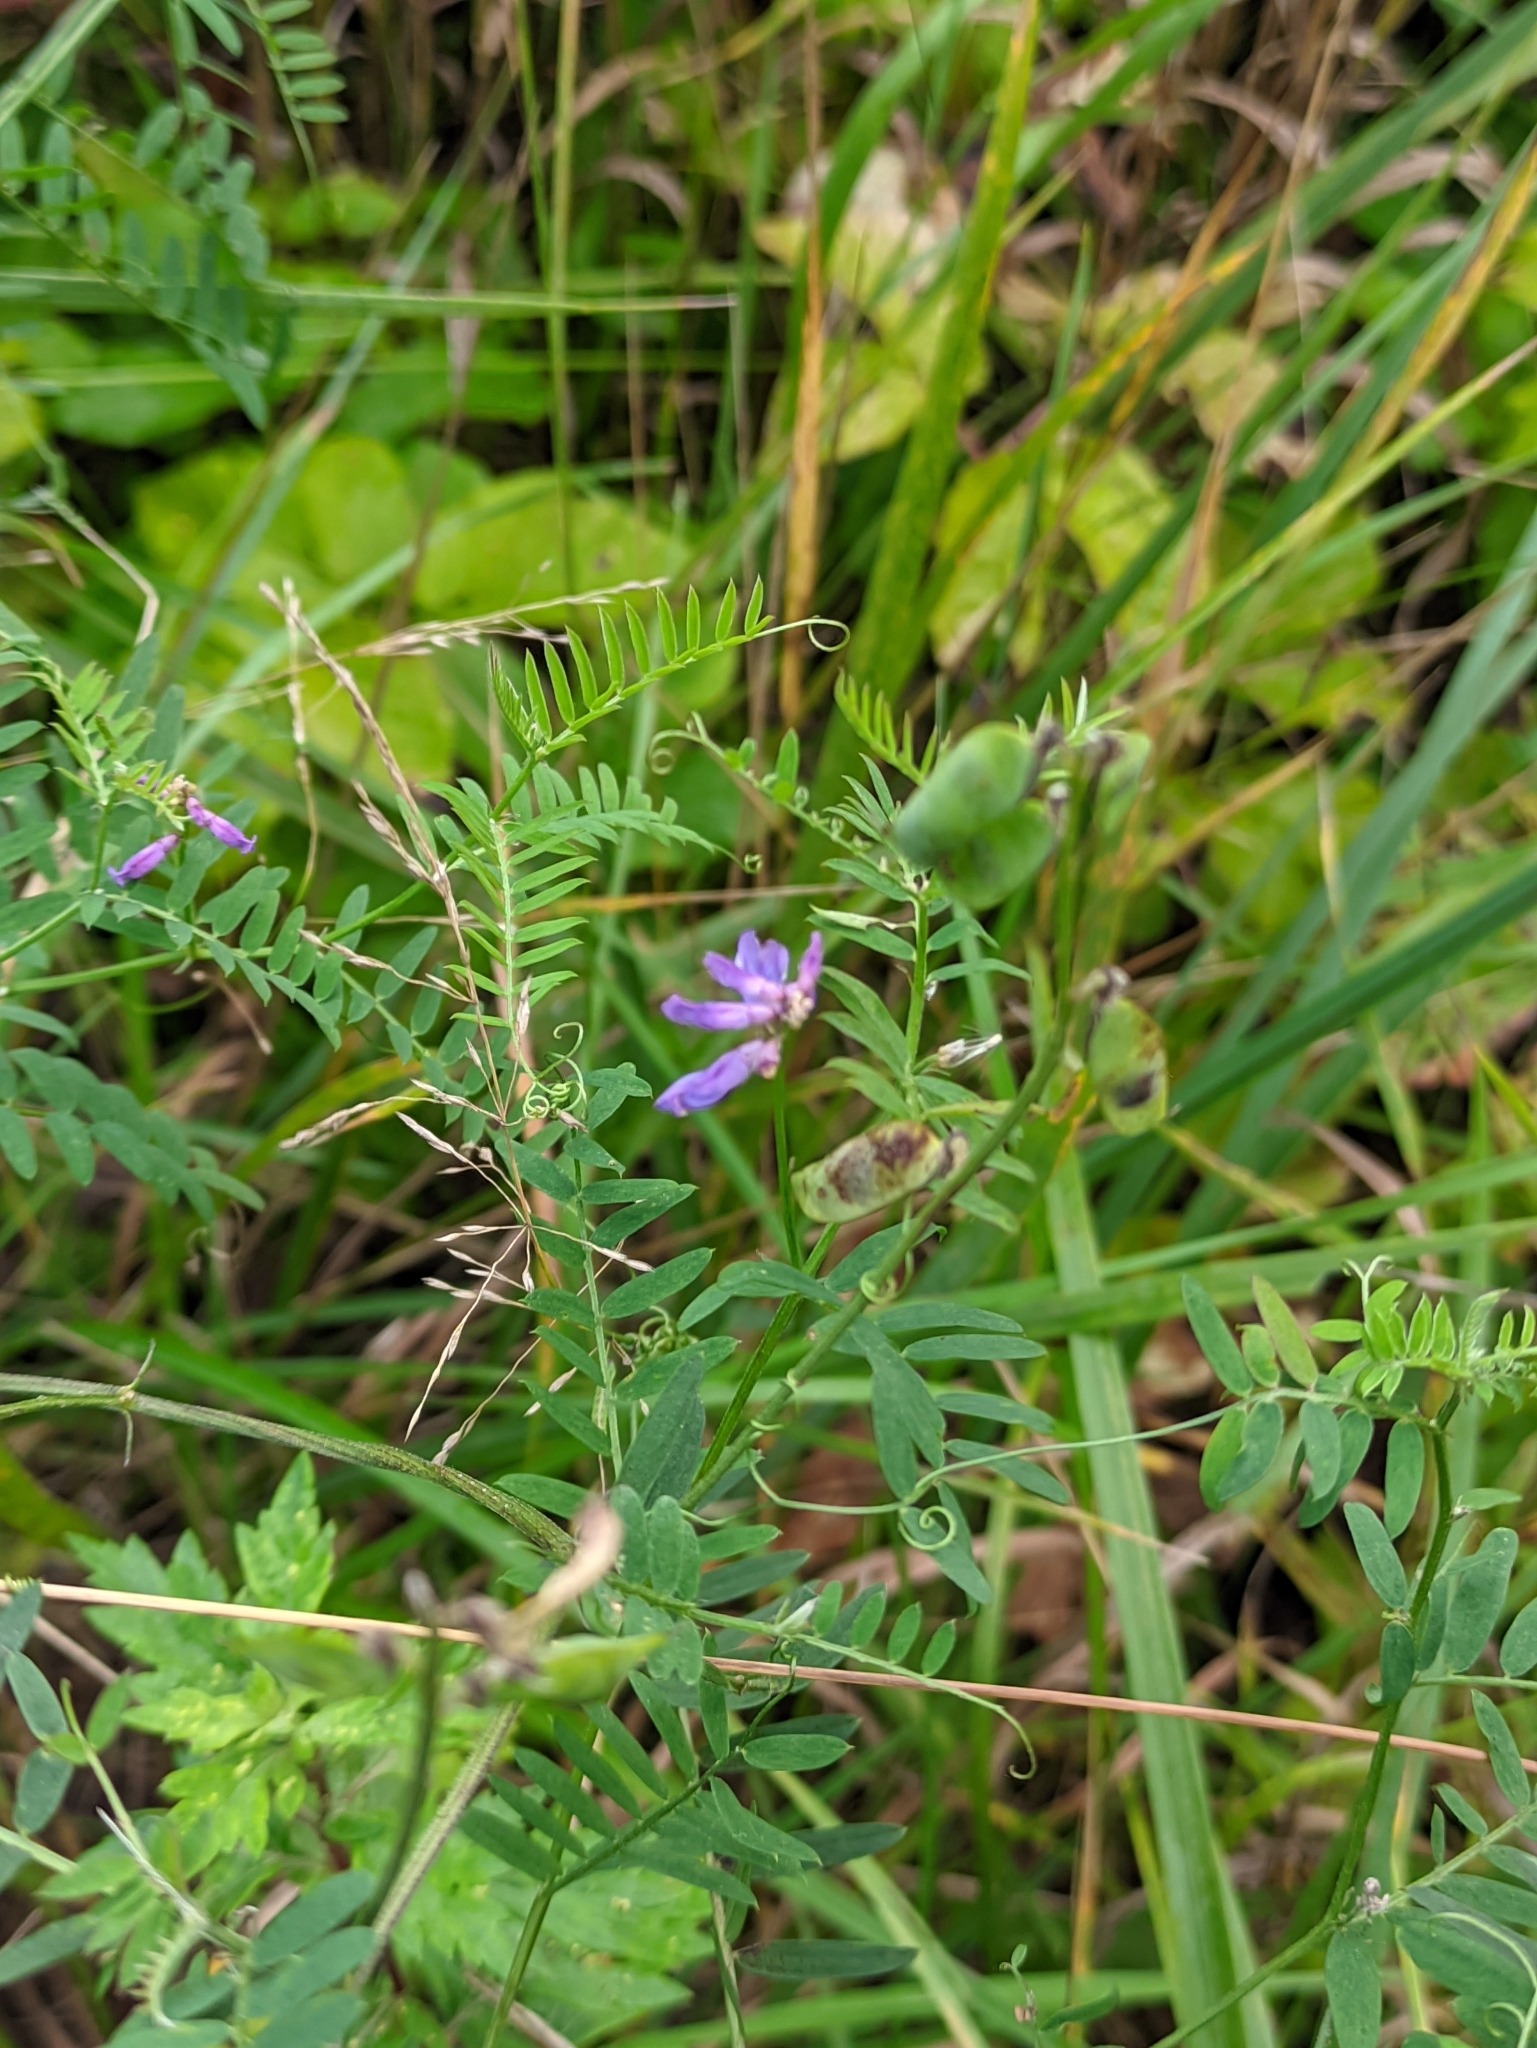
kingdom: Plantae
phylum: Tracheophyta
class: Magnoliopsida
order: Fabales
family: Fabaceae
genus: Vicia
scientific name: Vicia cracca
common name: Bird vetch
